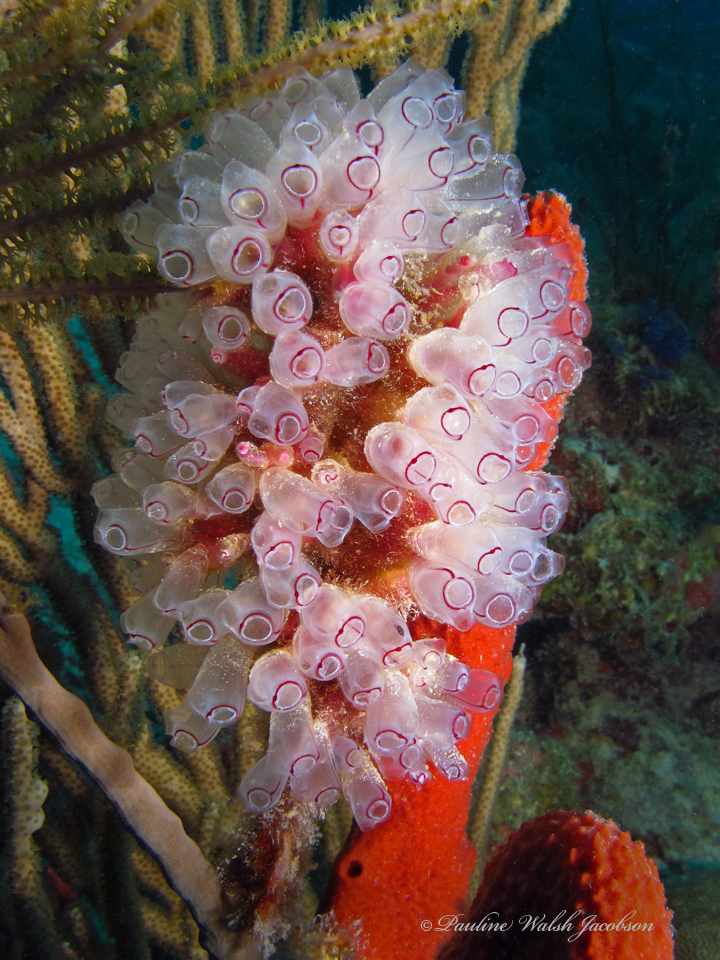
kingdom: Animalia
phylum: Chordata
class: Ascidiacea
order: Aplousobranchia
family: Clavelinidae
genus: Clavelina
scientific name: Clavelina picta
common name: Painted tunicate
